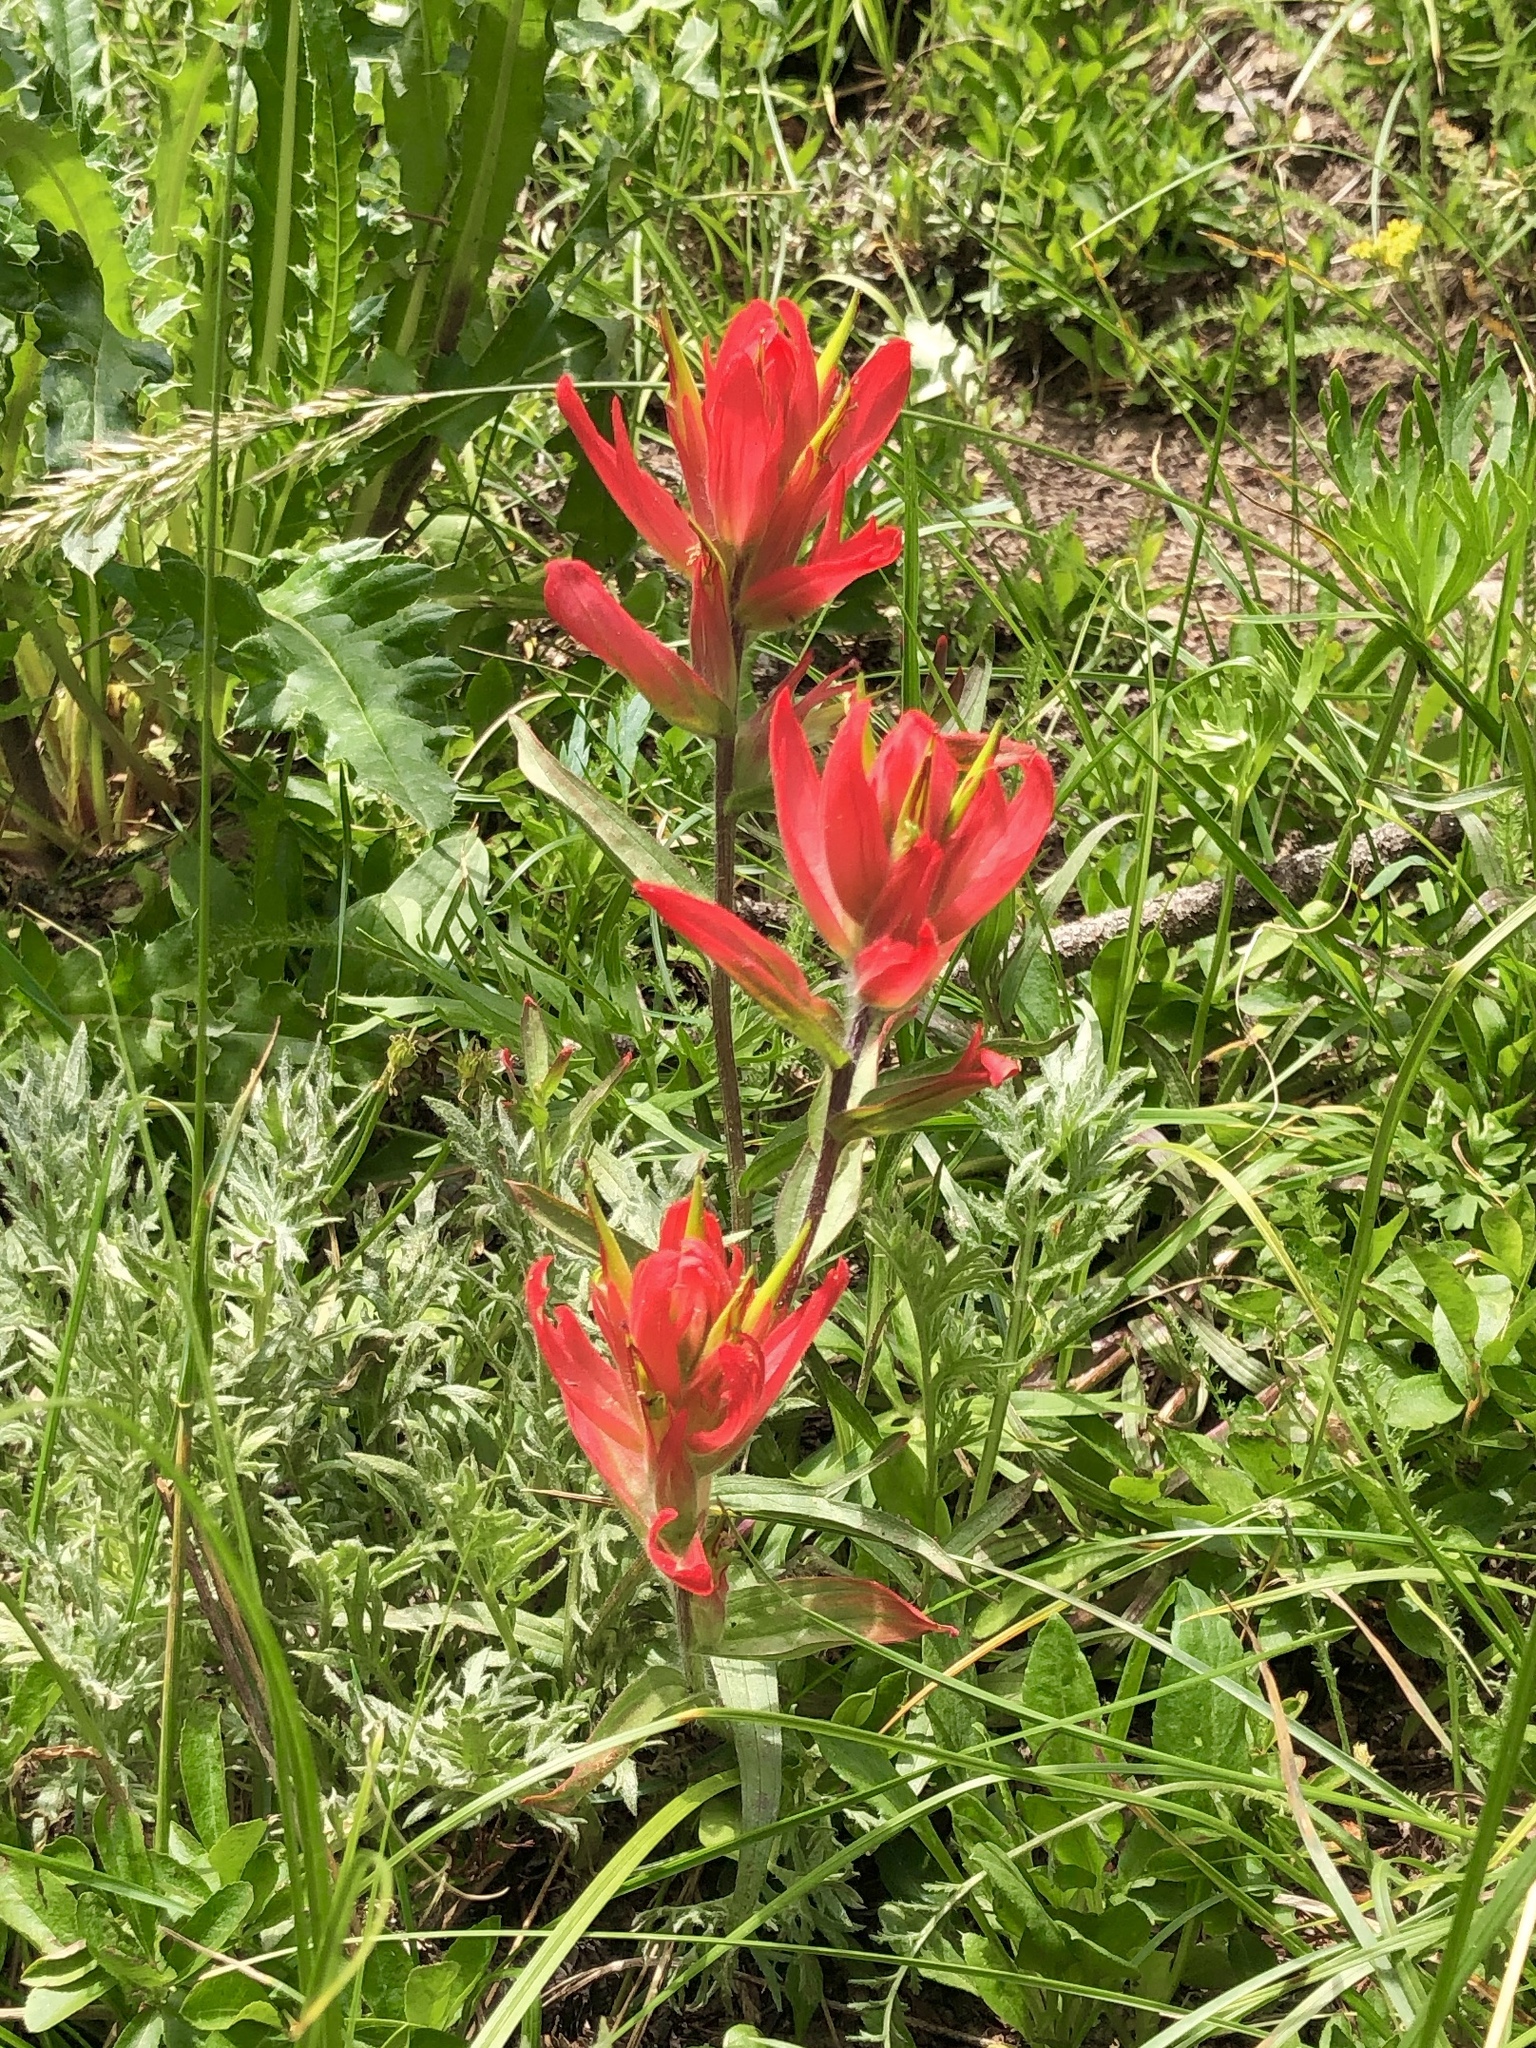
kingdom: Plantae
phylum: Tracheophyta
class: Magnoliopsida
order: Lamiales
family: Orobanchaceae
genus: Castilleja
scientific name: Castilleja miniata
